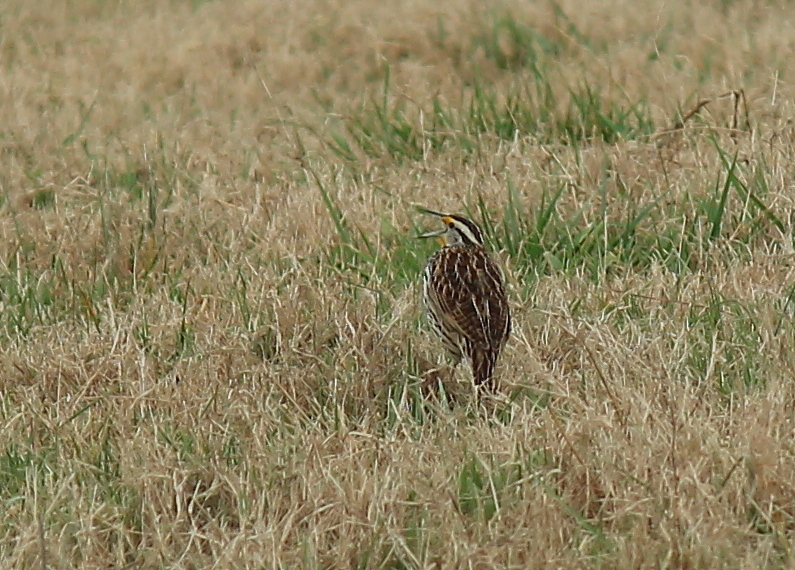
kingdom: Animalia
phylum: Chordata
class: Aves
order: Passeriformes
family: Icteridae
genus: Sturnella
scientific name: Sturnella magna
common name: Eastern meadowlark
